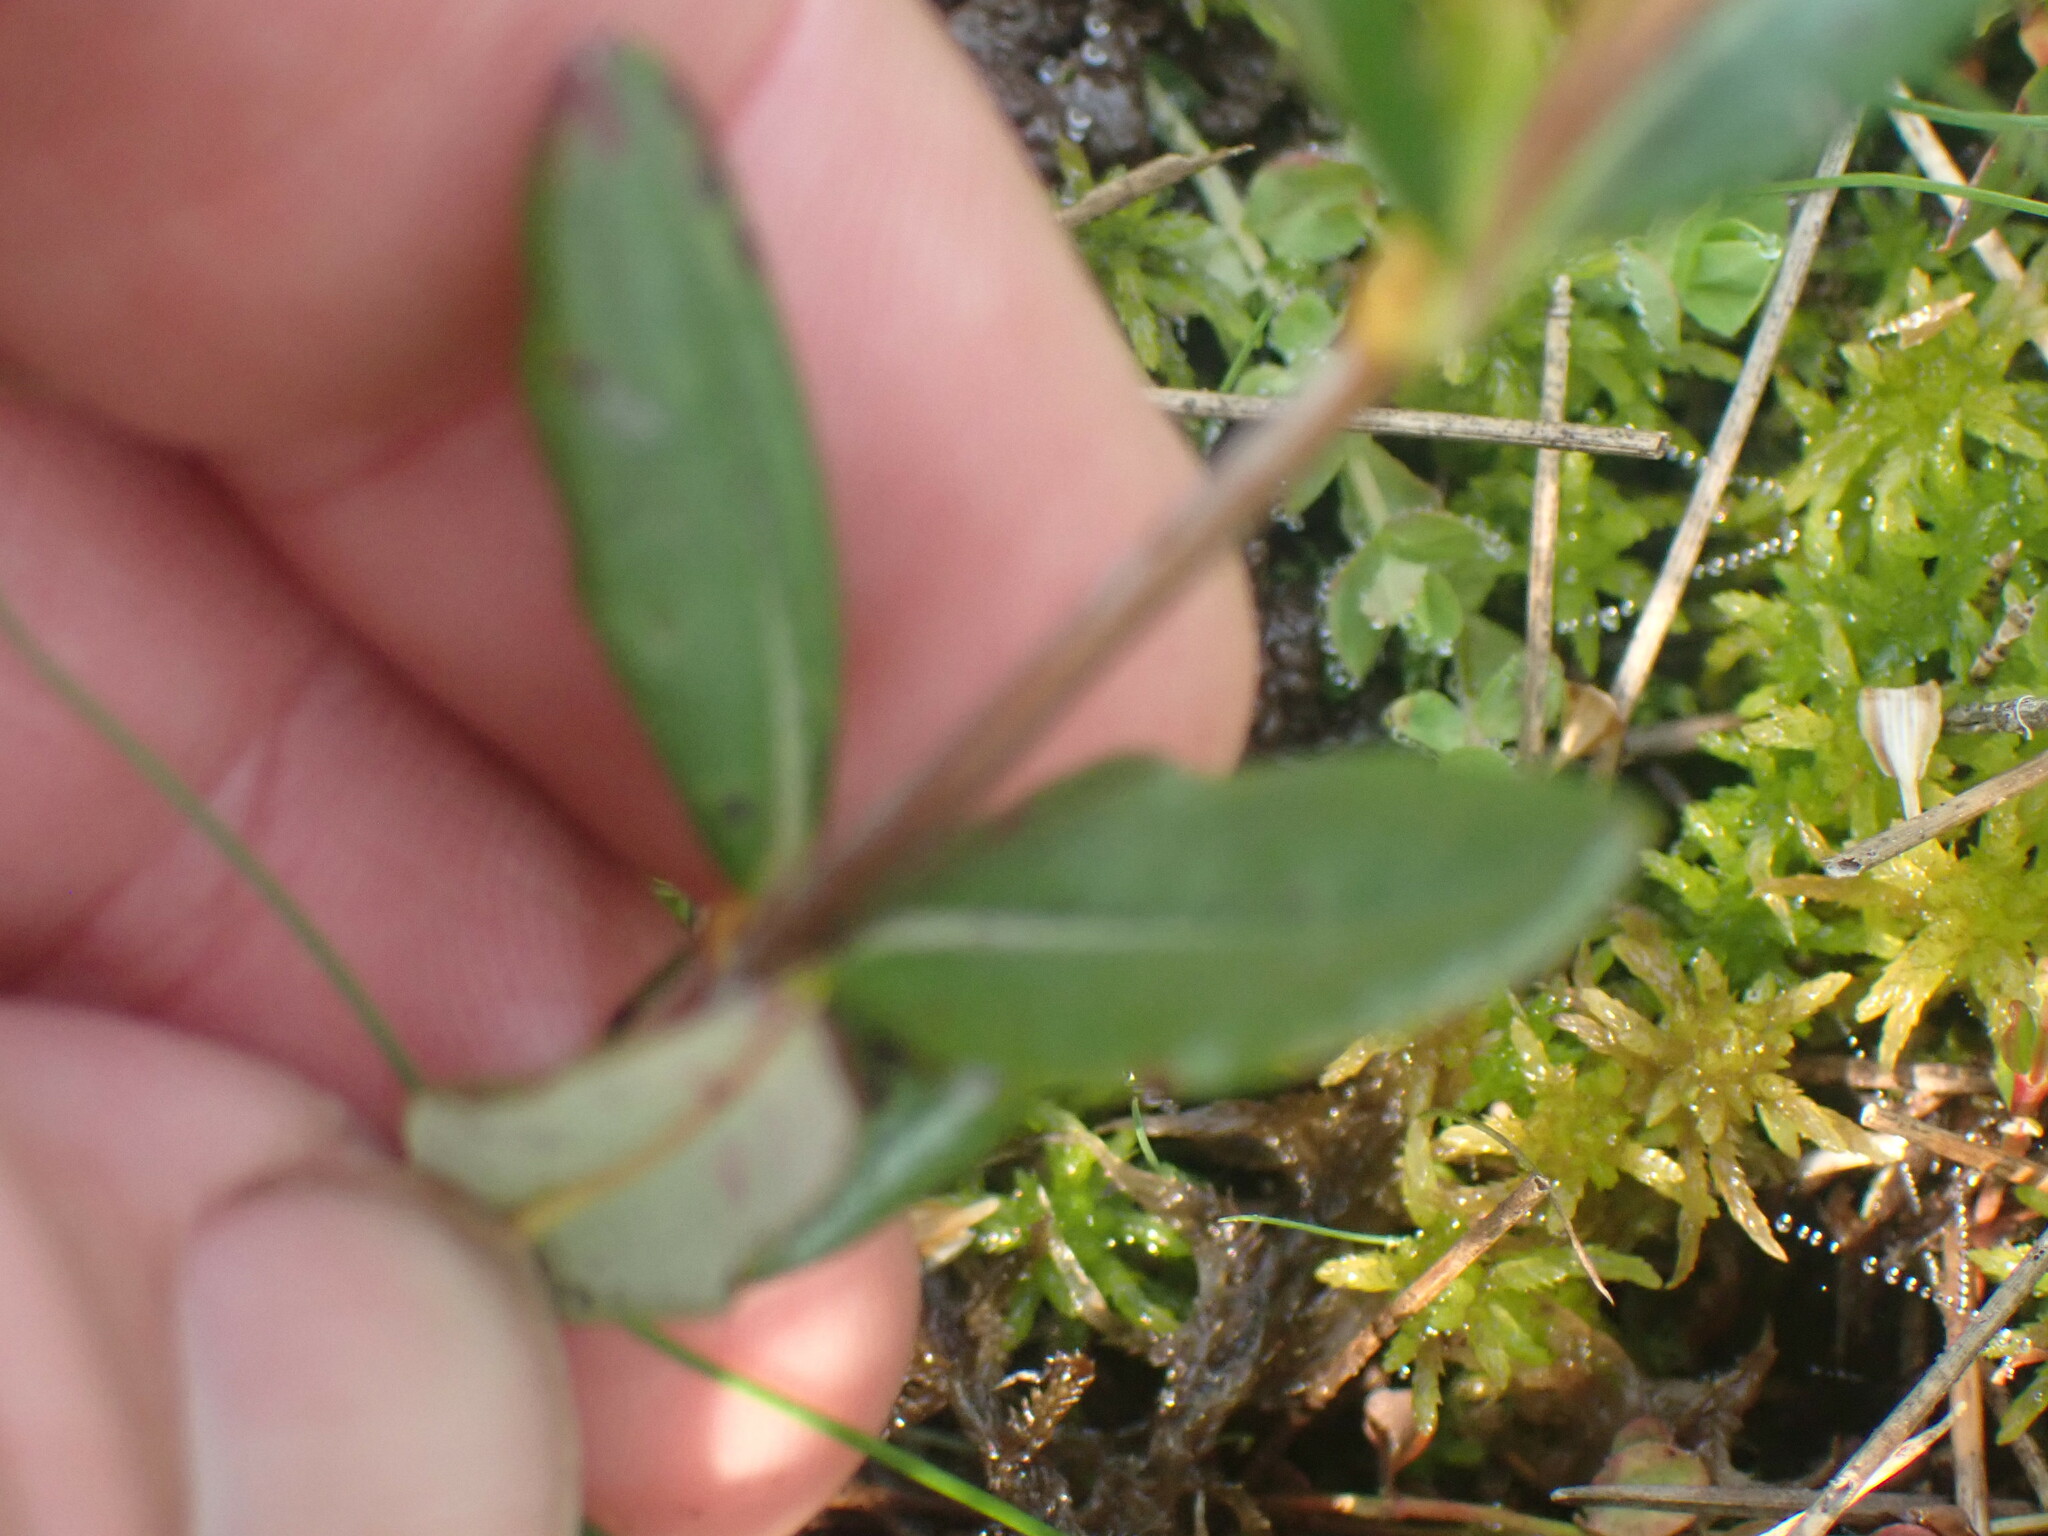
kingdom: Plantae
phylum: Tracheophyta
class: Magnoliopsida
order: Ericales
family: Ericaceae
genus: Kalmia
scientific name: Kalmia microphylla
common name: Alpine bog laurel
